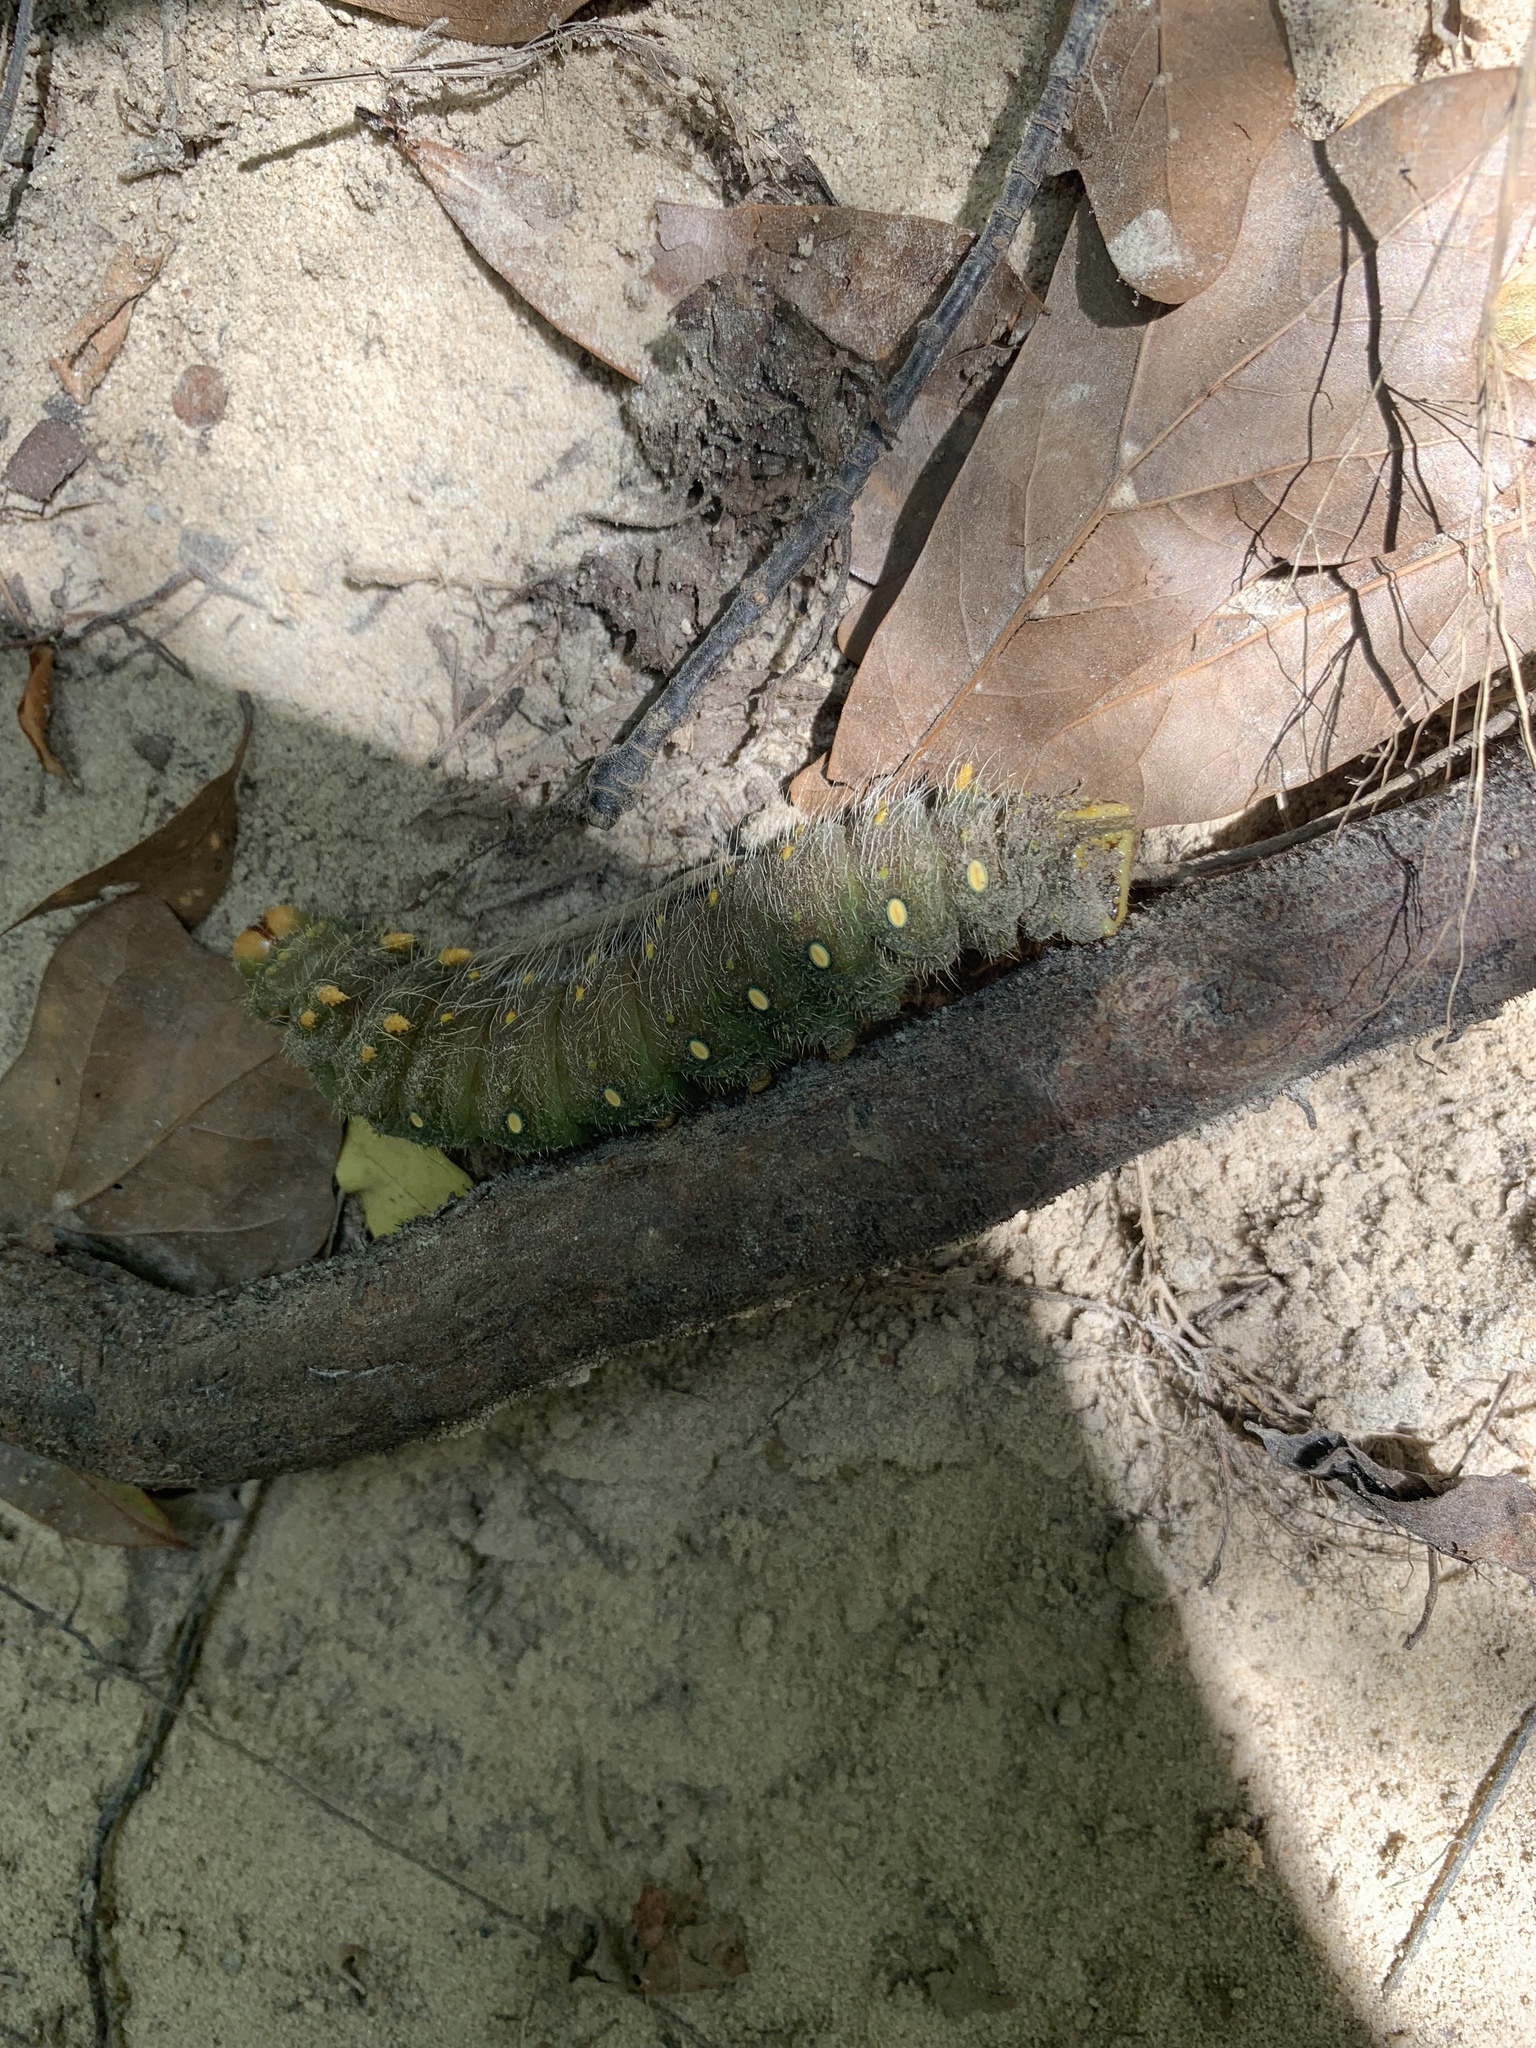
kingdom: Animalia
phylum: Arthropoda
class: Insecta
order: Lepidoptera
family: Saturniidae
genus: Eacles
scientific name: Eacles imperialis
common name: Imperial moth
